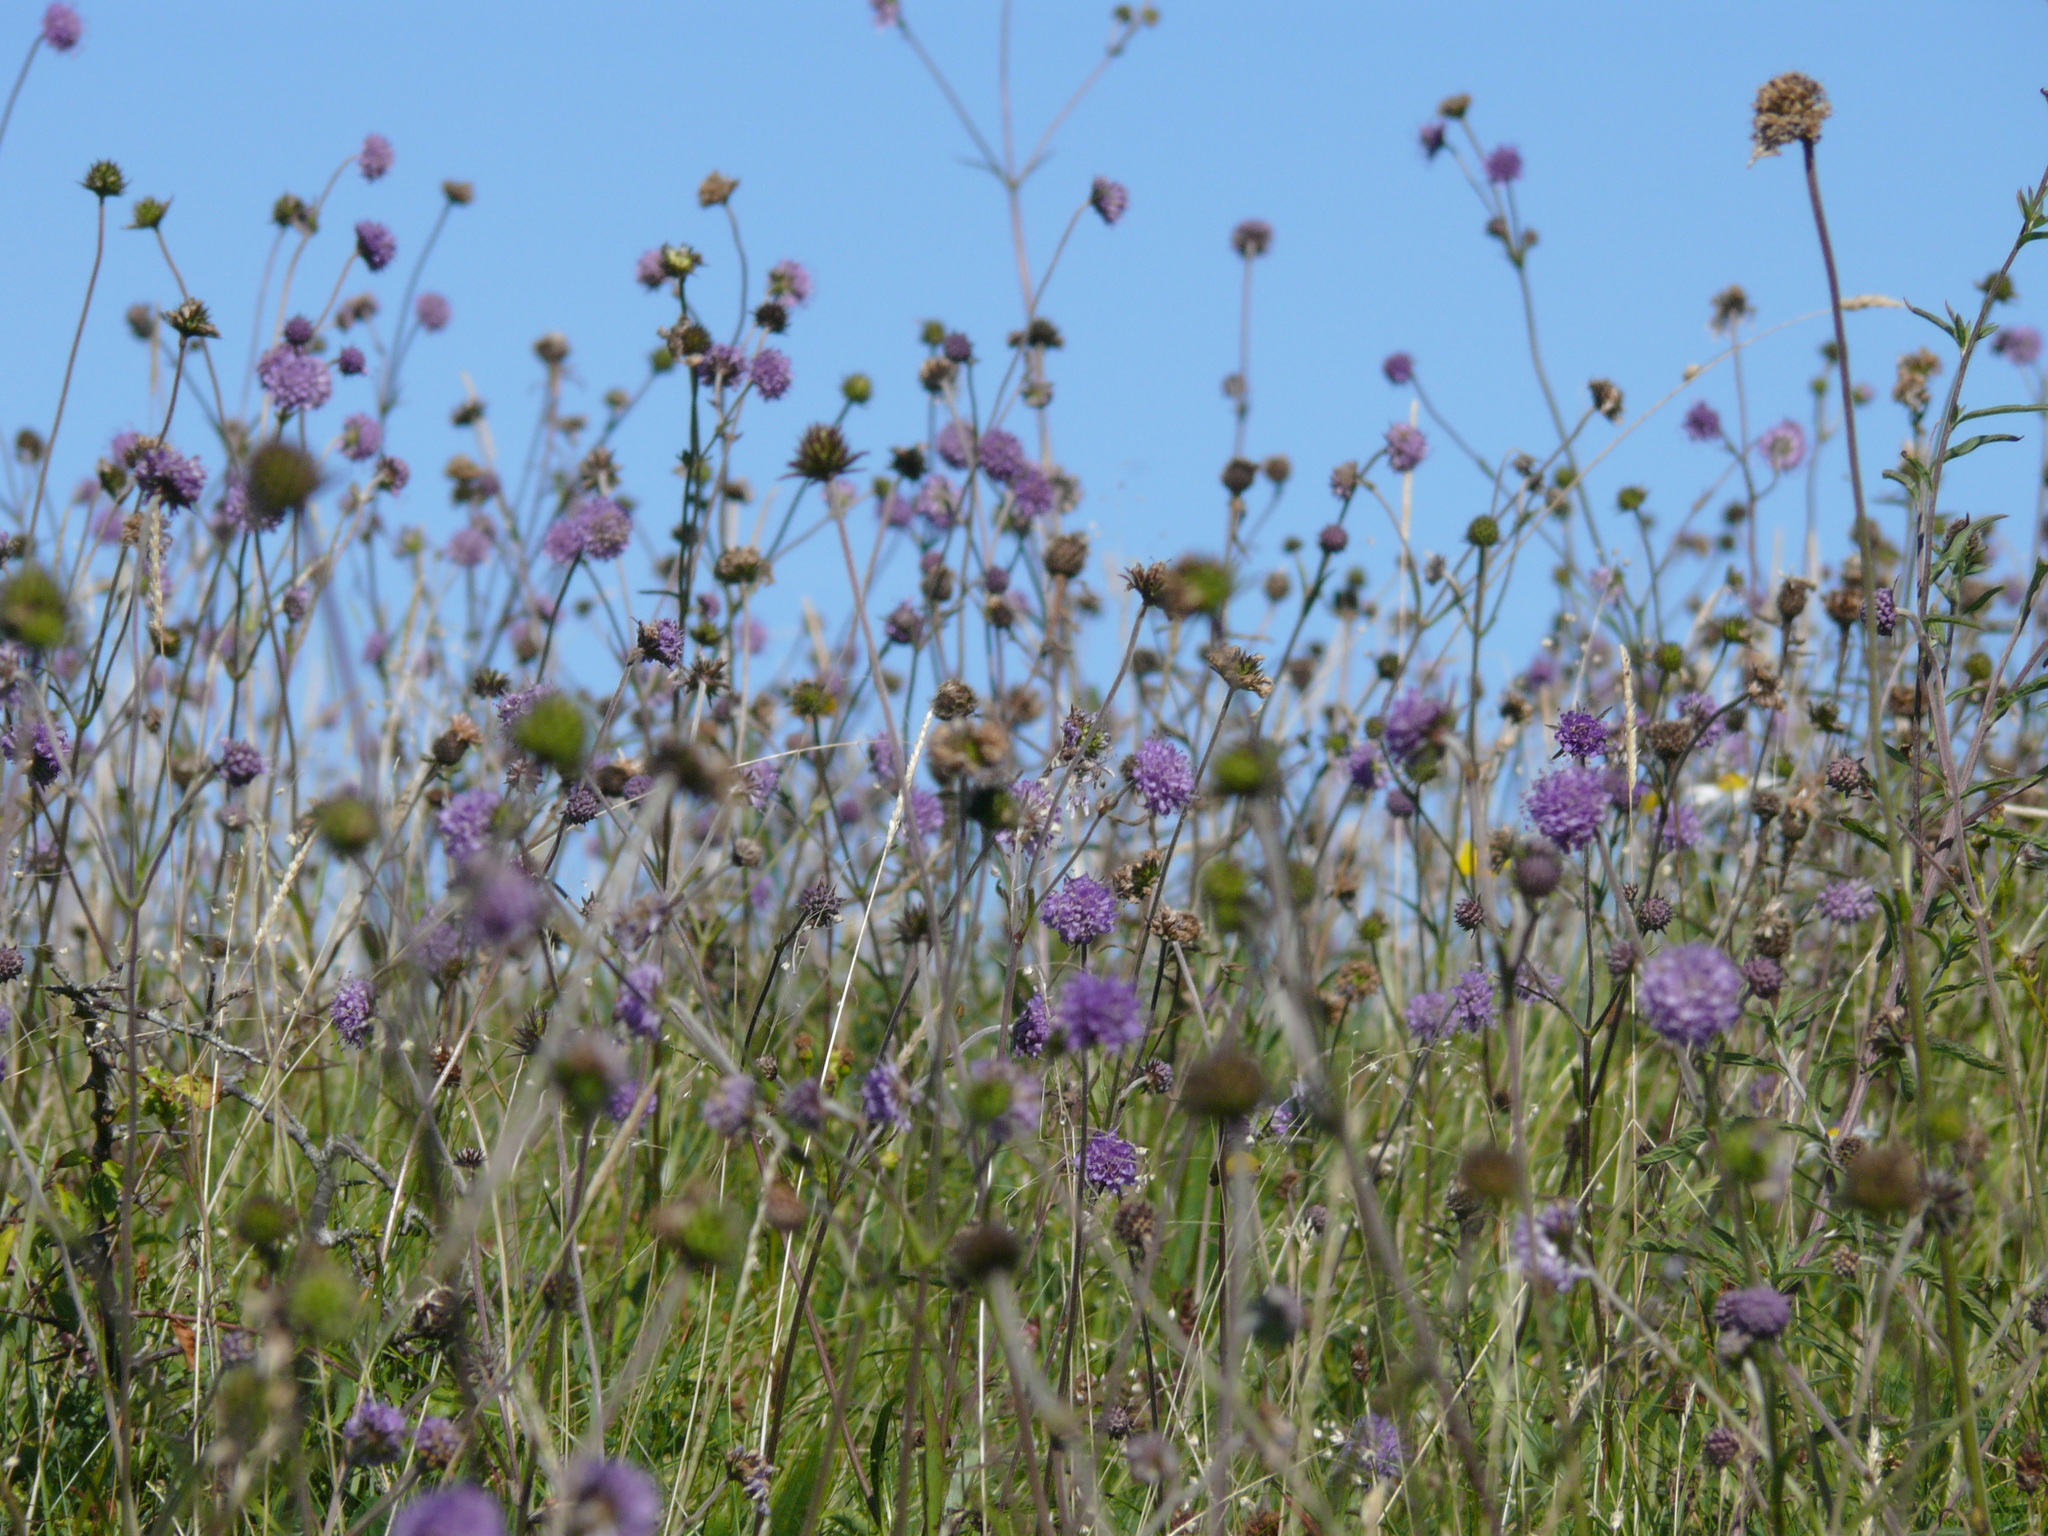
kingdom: Plantae
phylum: Tracheophyta
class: Magnoliopsida
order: Dipsacales
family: Caprifoliaceae
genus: Succisa
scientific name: Succisa pratensis
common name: Devil's-bit
